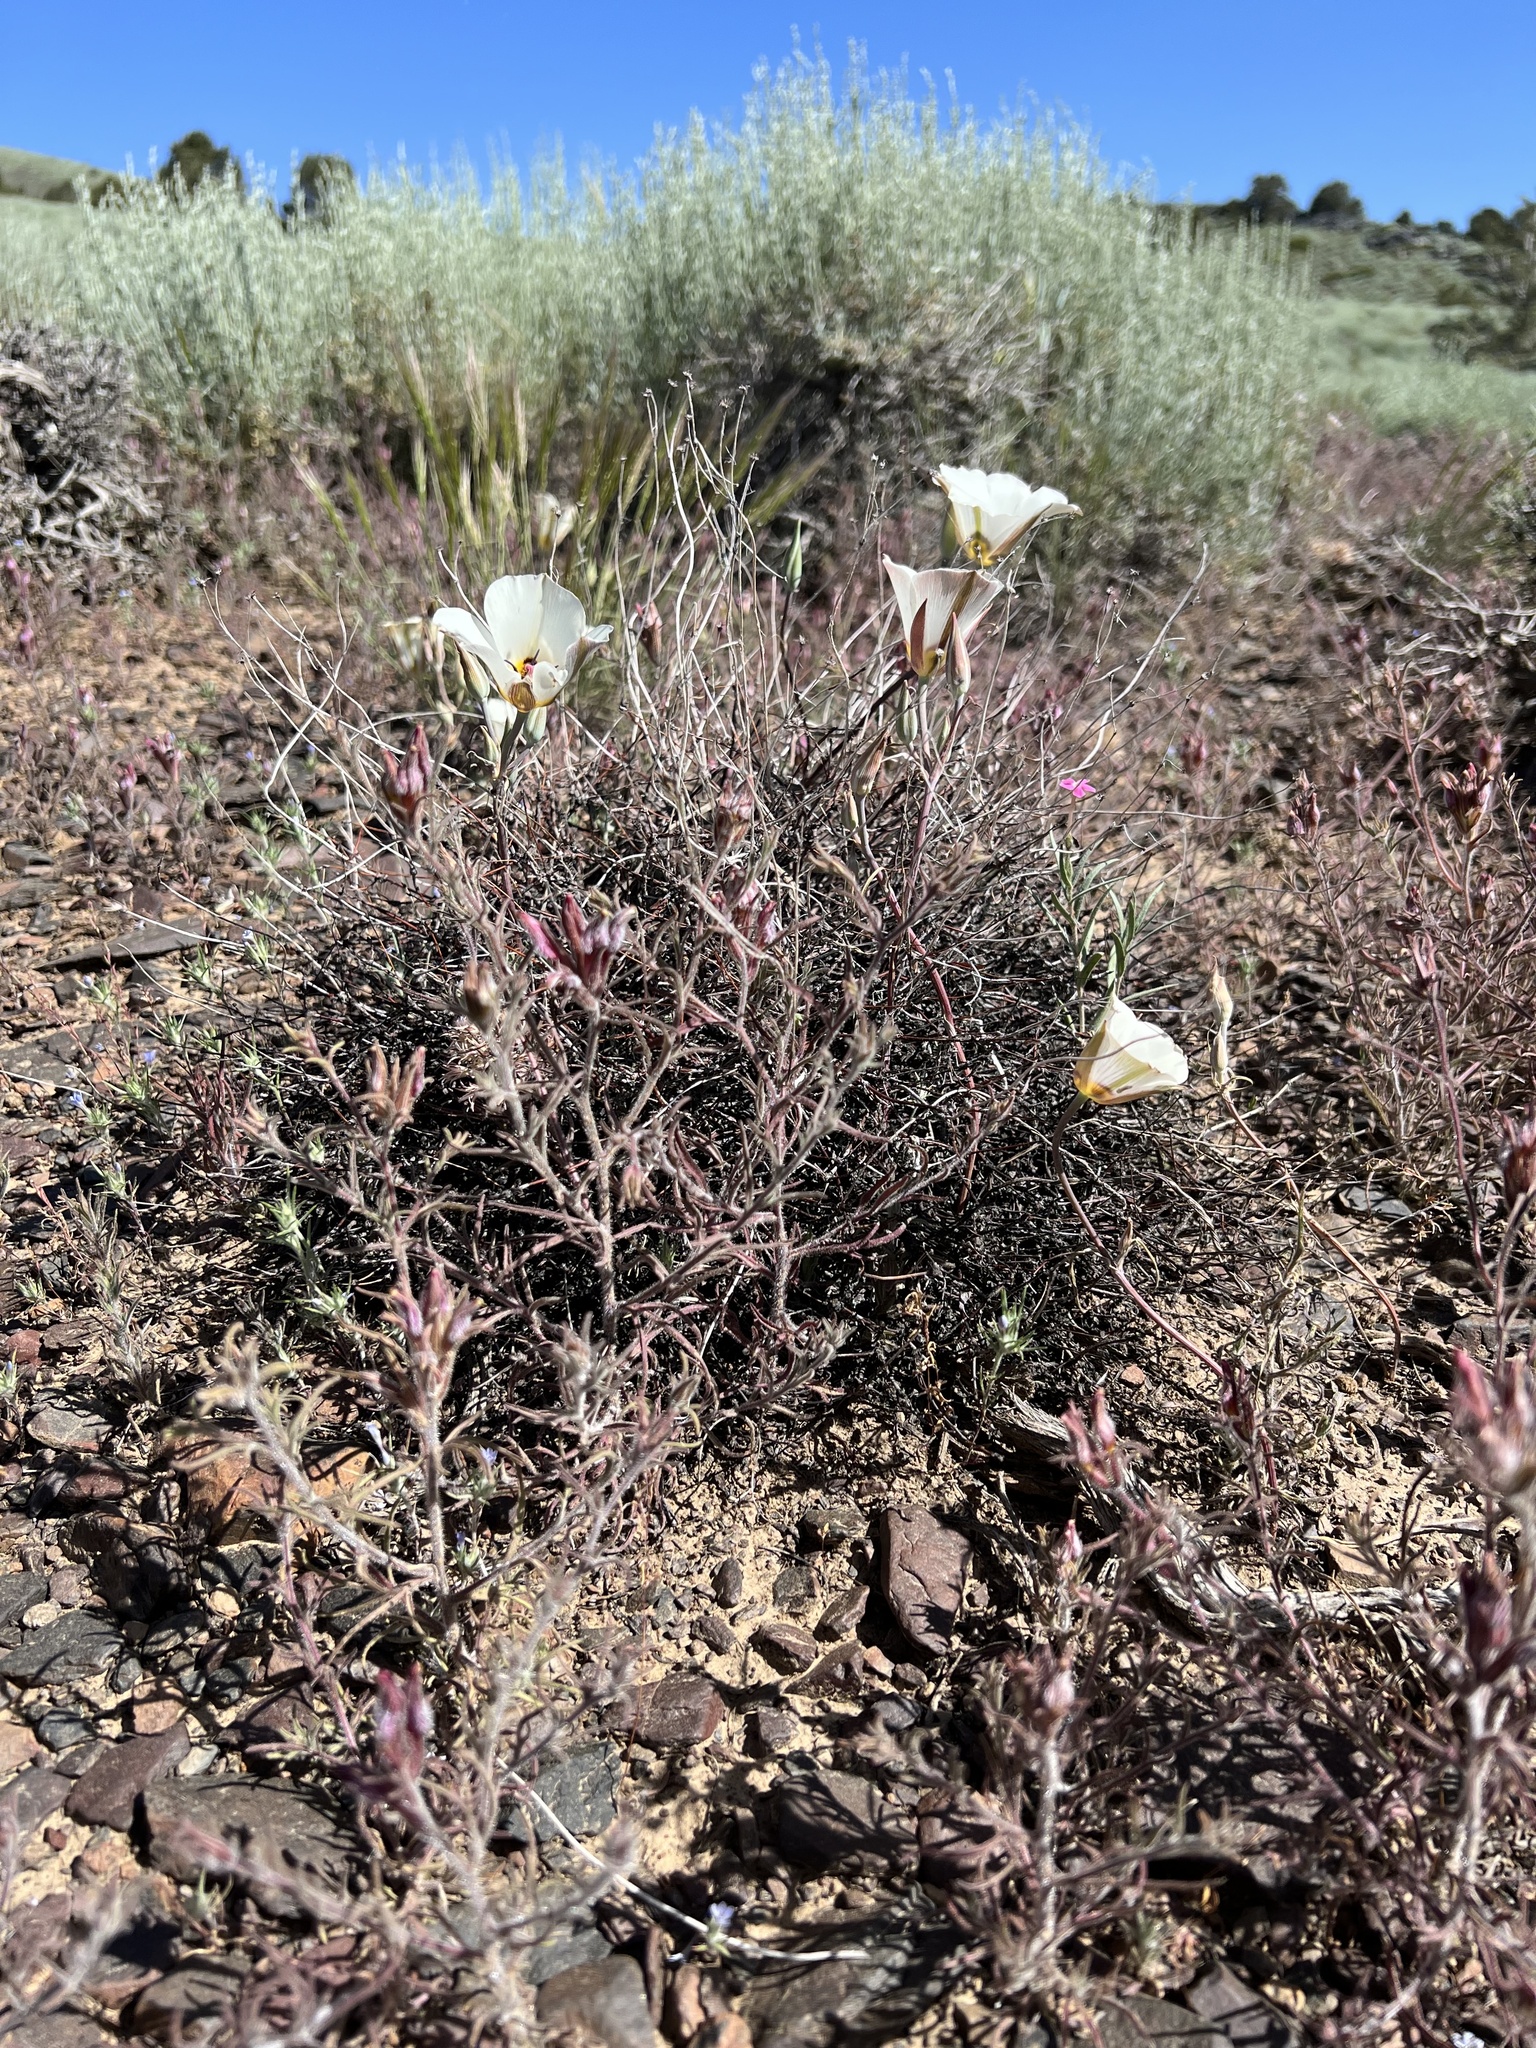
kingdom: Plantae
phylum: Tracheophyta
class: Liliopsida
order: Liliales
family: Liliaceae
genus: Calochortus
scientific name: Calochortus bruneaunis
